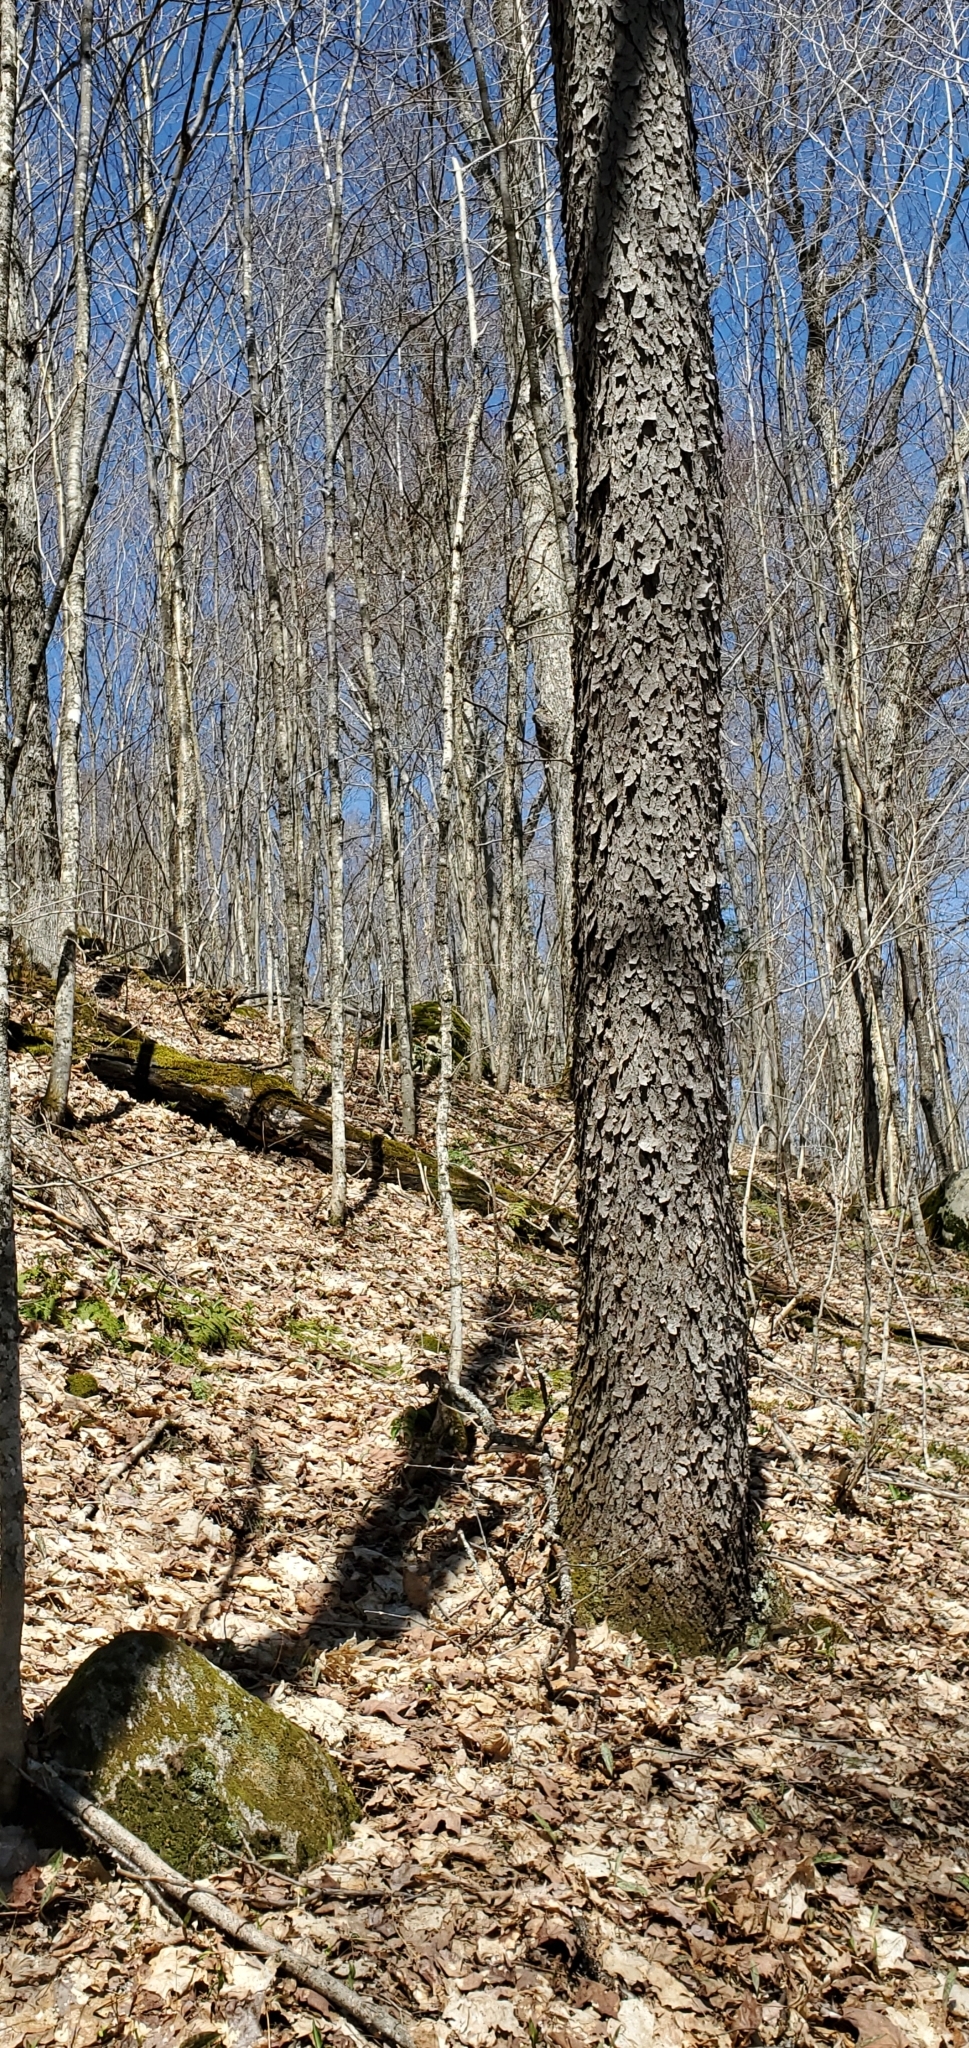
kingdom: Plantae
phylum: Tracheophyta
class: Magnoliopsida
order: Rosales
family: Rosaceae
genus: Prunus
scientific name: Prunus serotina
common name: Black cherry
